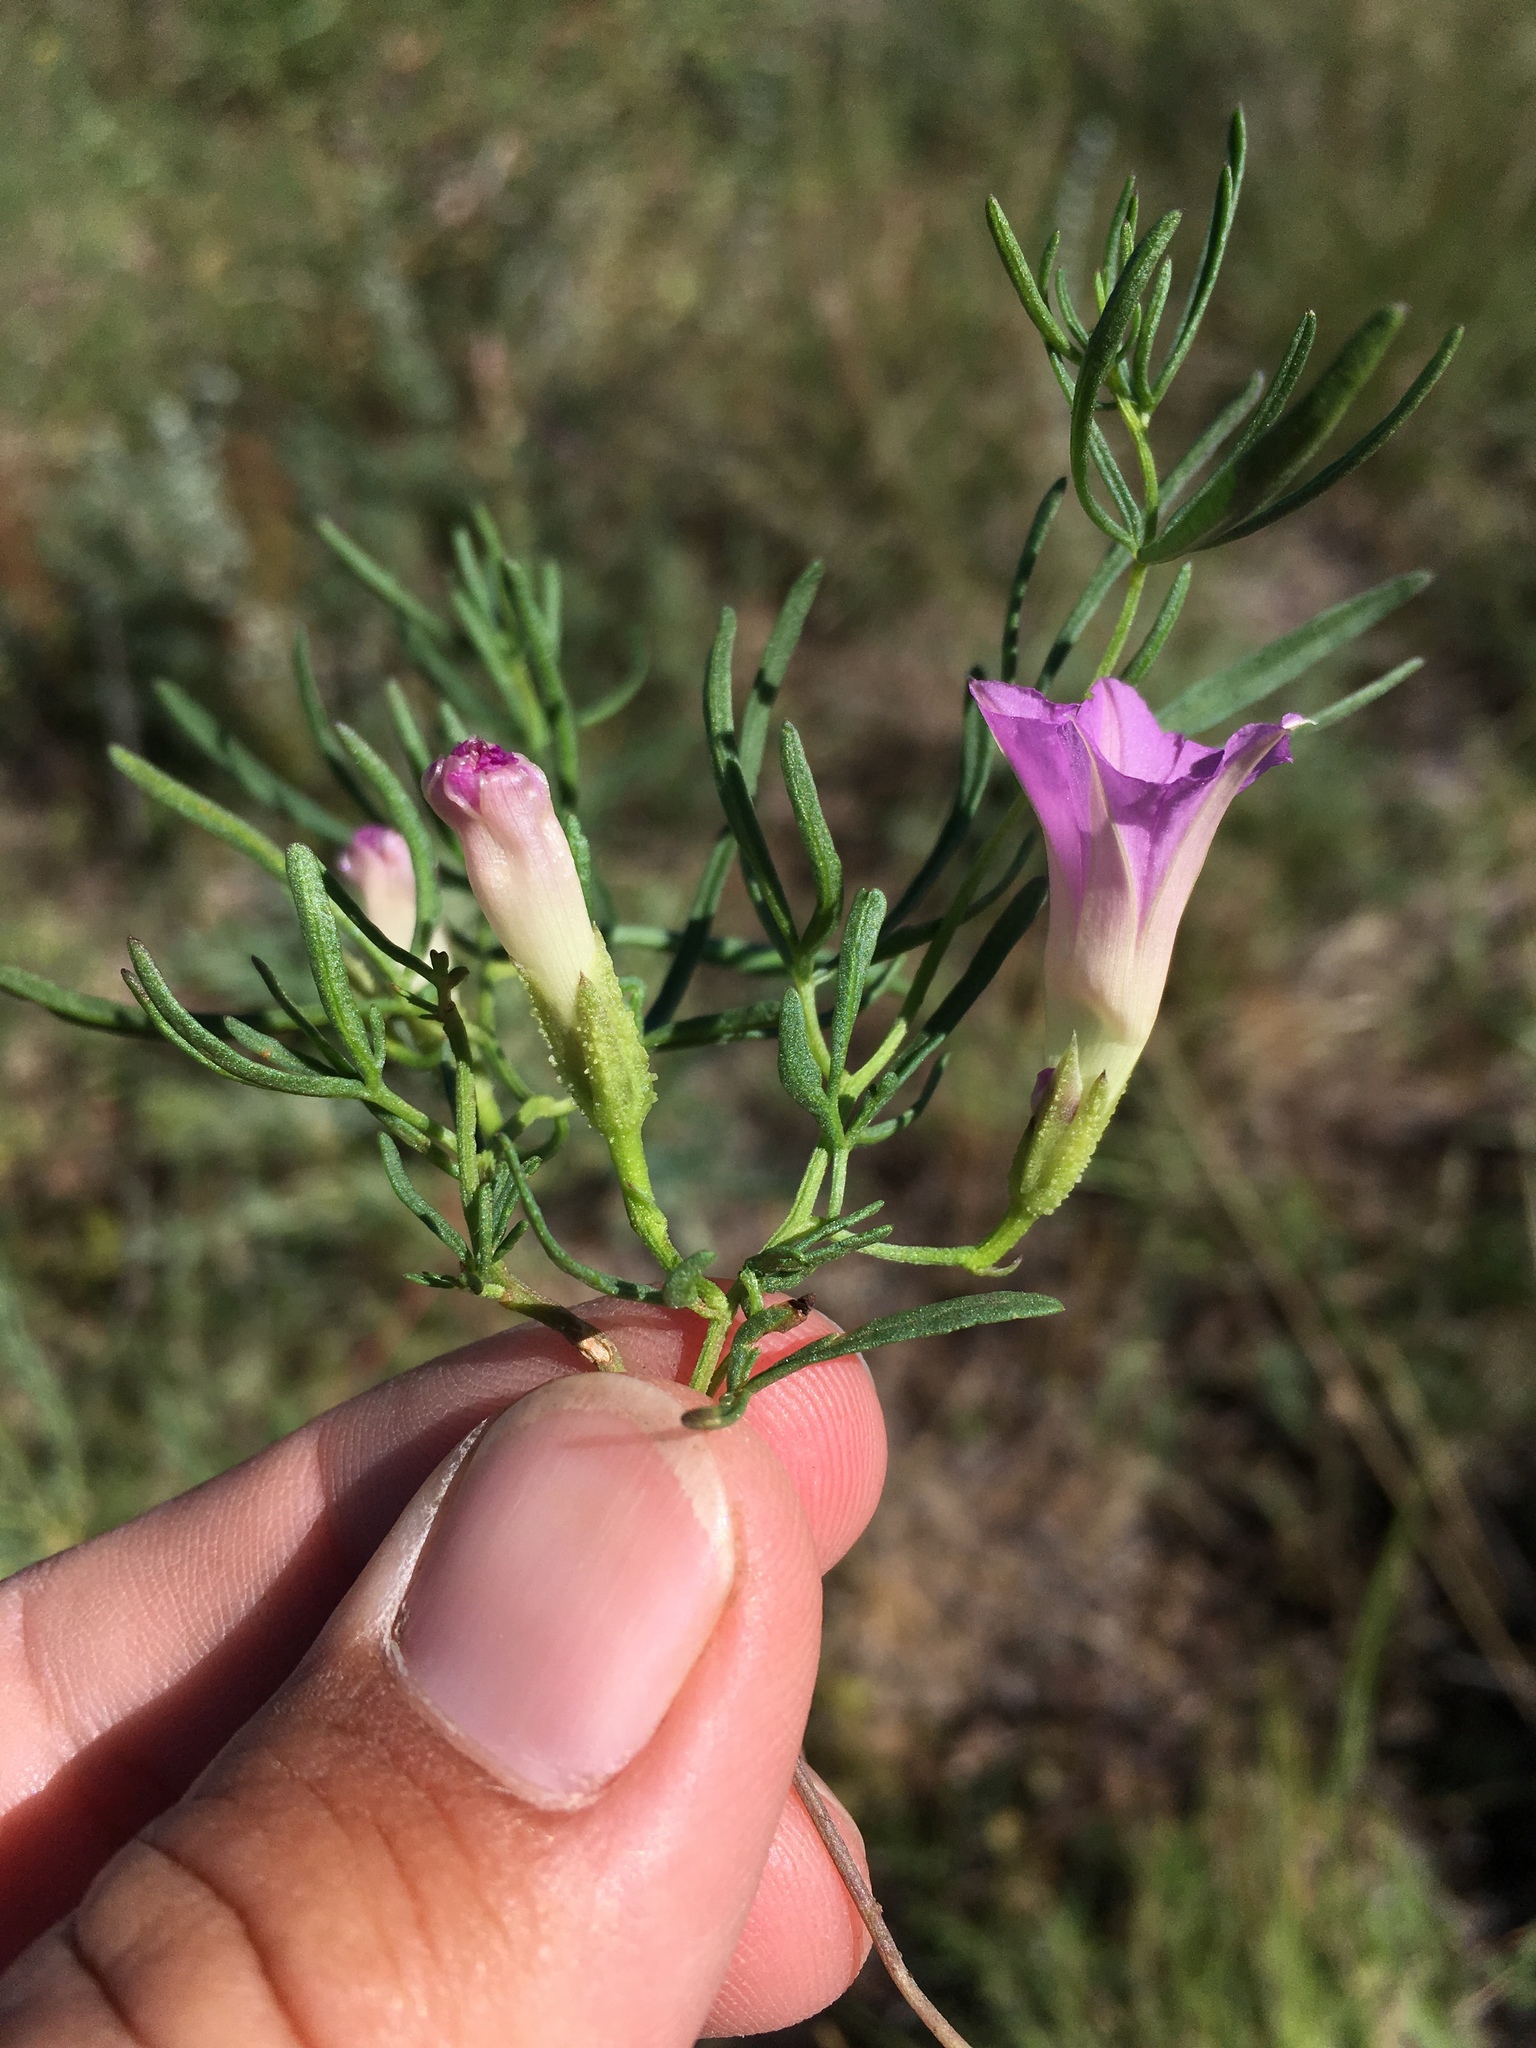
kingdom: Plantae
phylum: Tracheophyta
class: Magnoliopsida
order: Solanales
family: Convolvulaceae
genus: Ipomoea
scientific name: Ipomoea plummerae
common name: Plummer's morning-glory
